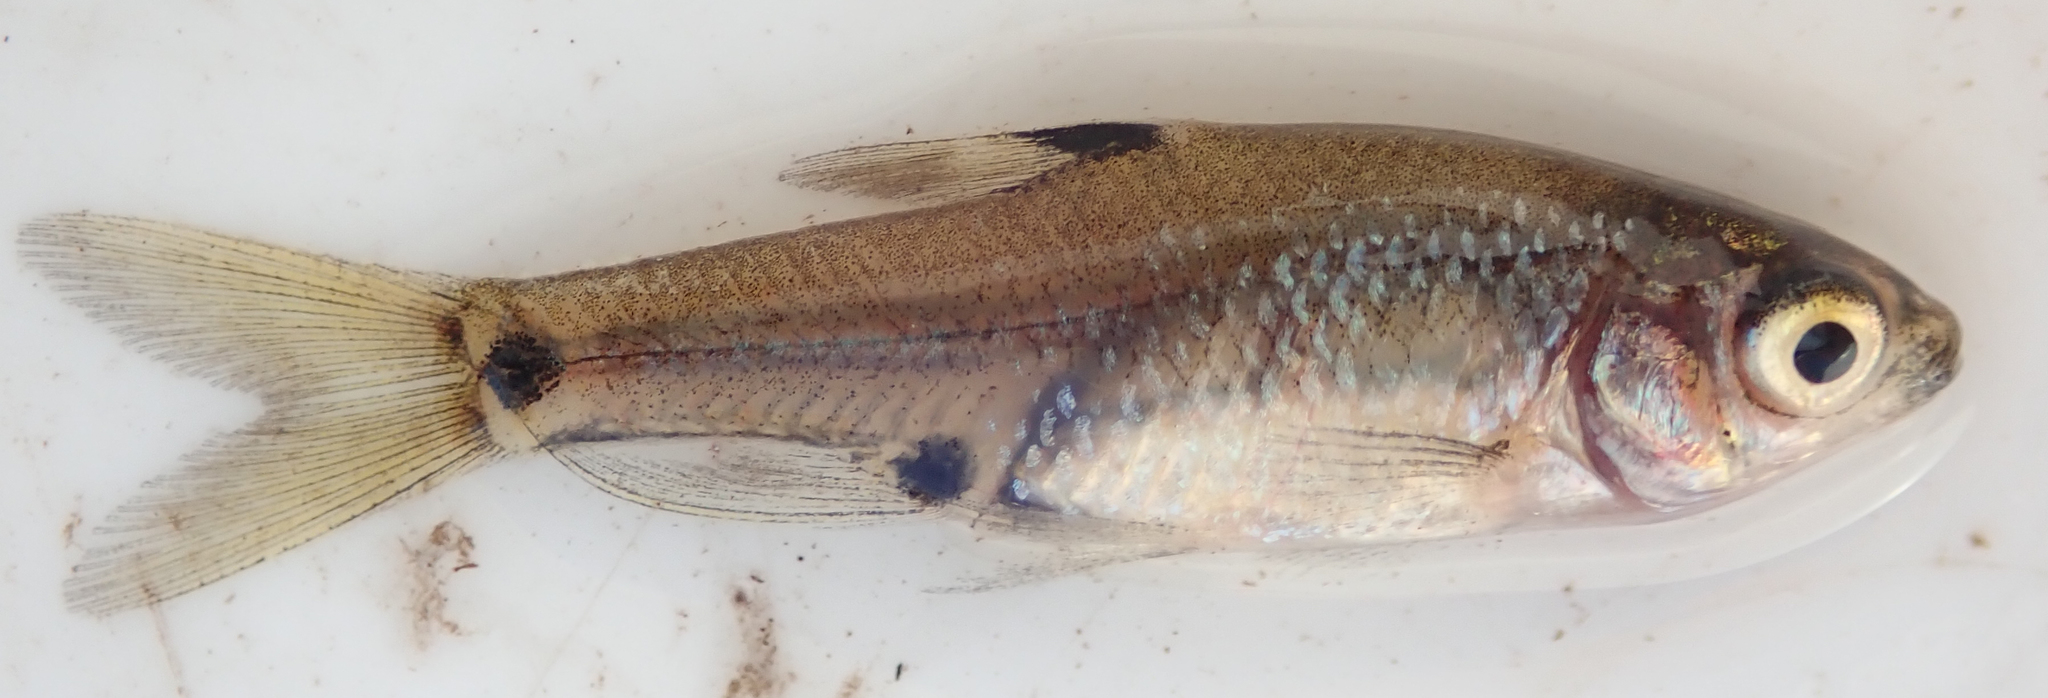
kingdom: Animalia
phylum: Chordata
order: Cypriniformes
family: Cyprinidae
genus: Enteromius
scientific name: Enteromius haasianus
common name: Sickle-fin barb
